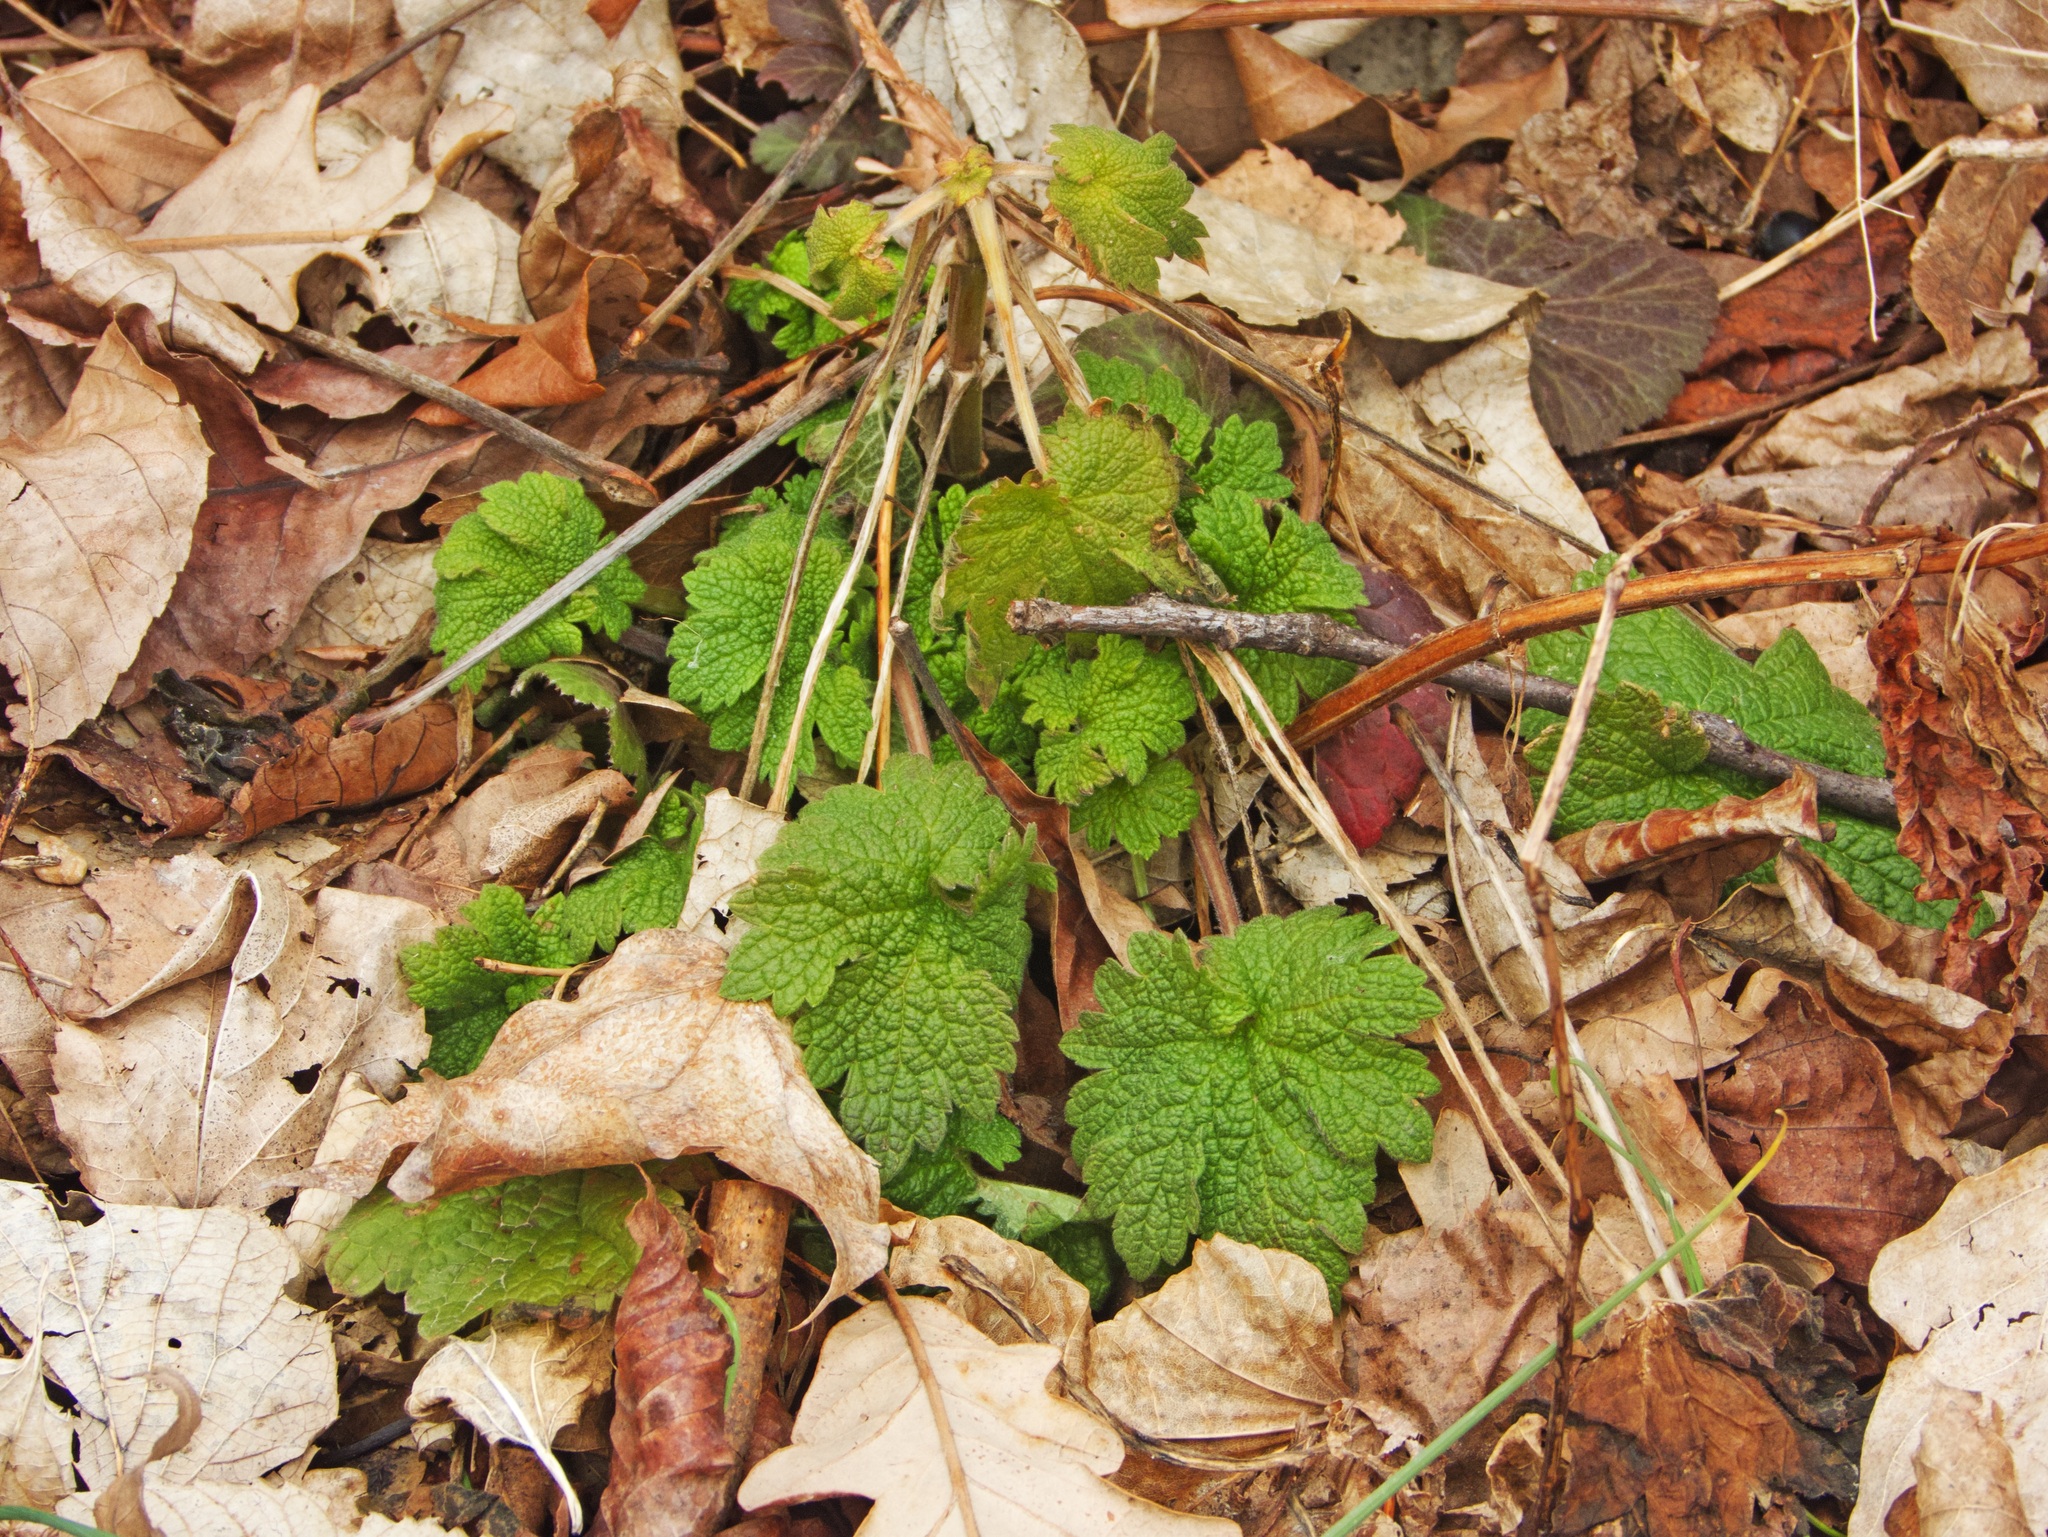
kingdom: Plantae
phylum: Tracheophyta
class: Magnoliopsida
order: Lamiales
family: Lamiaceae
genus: Leonurus
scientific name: Leonurus cardiaca
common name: Motherwort
